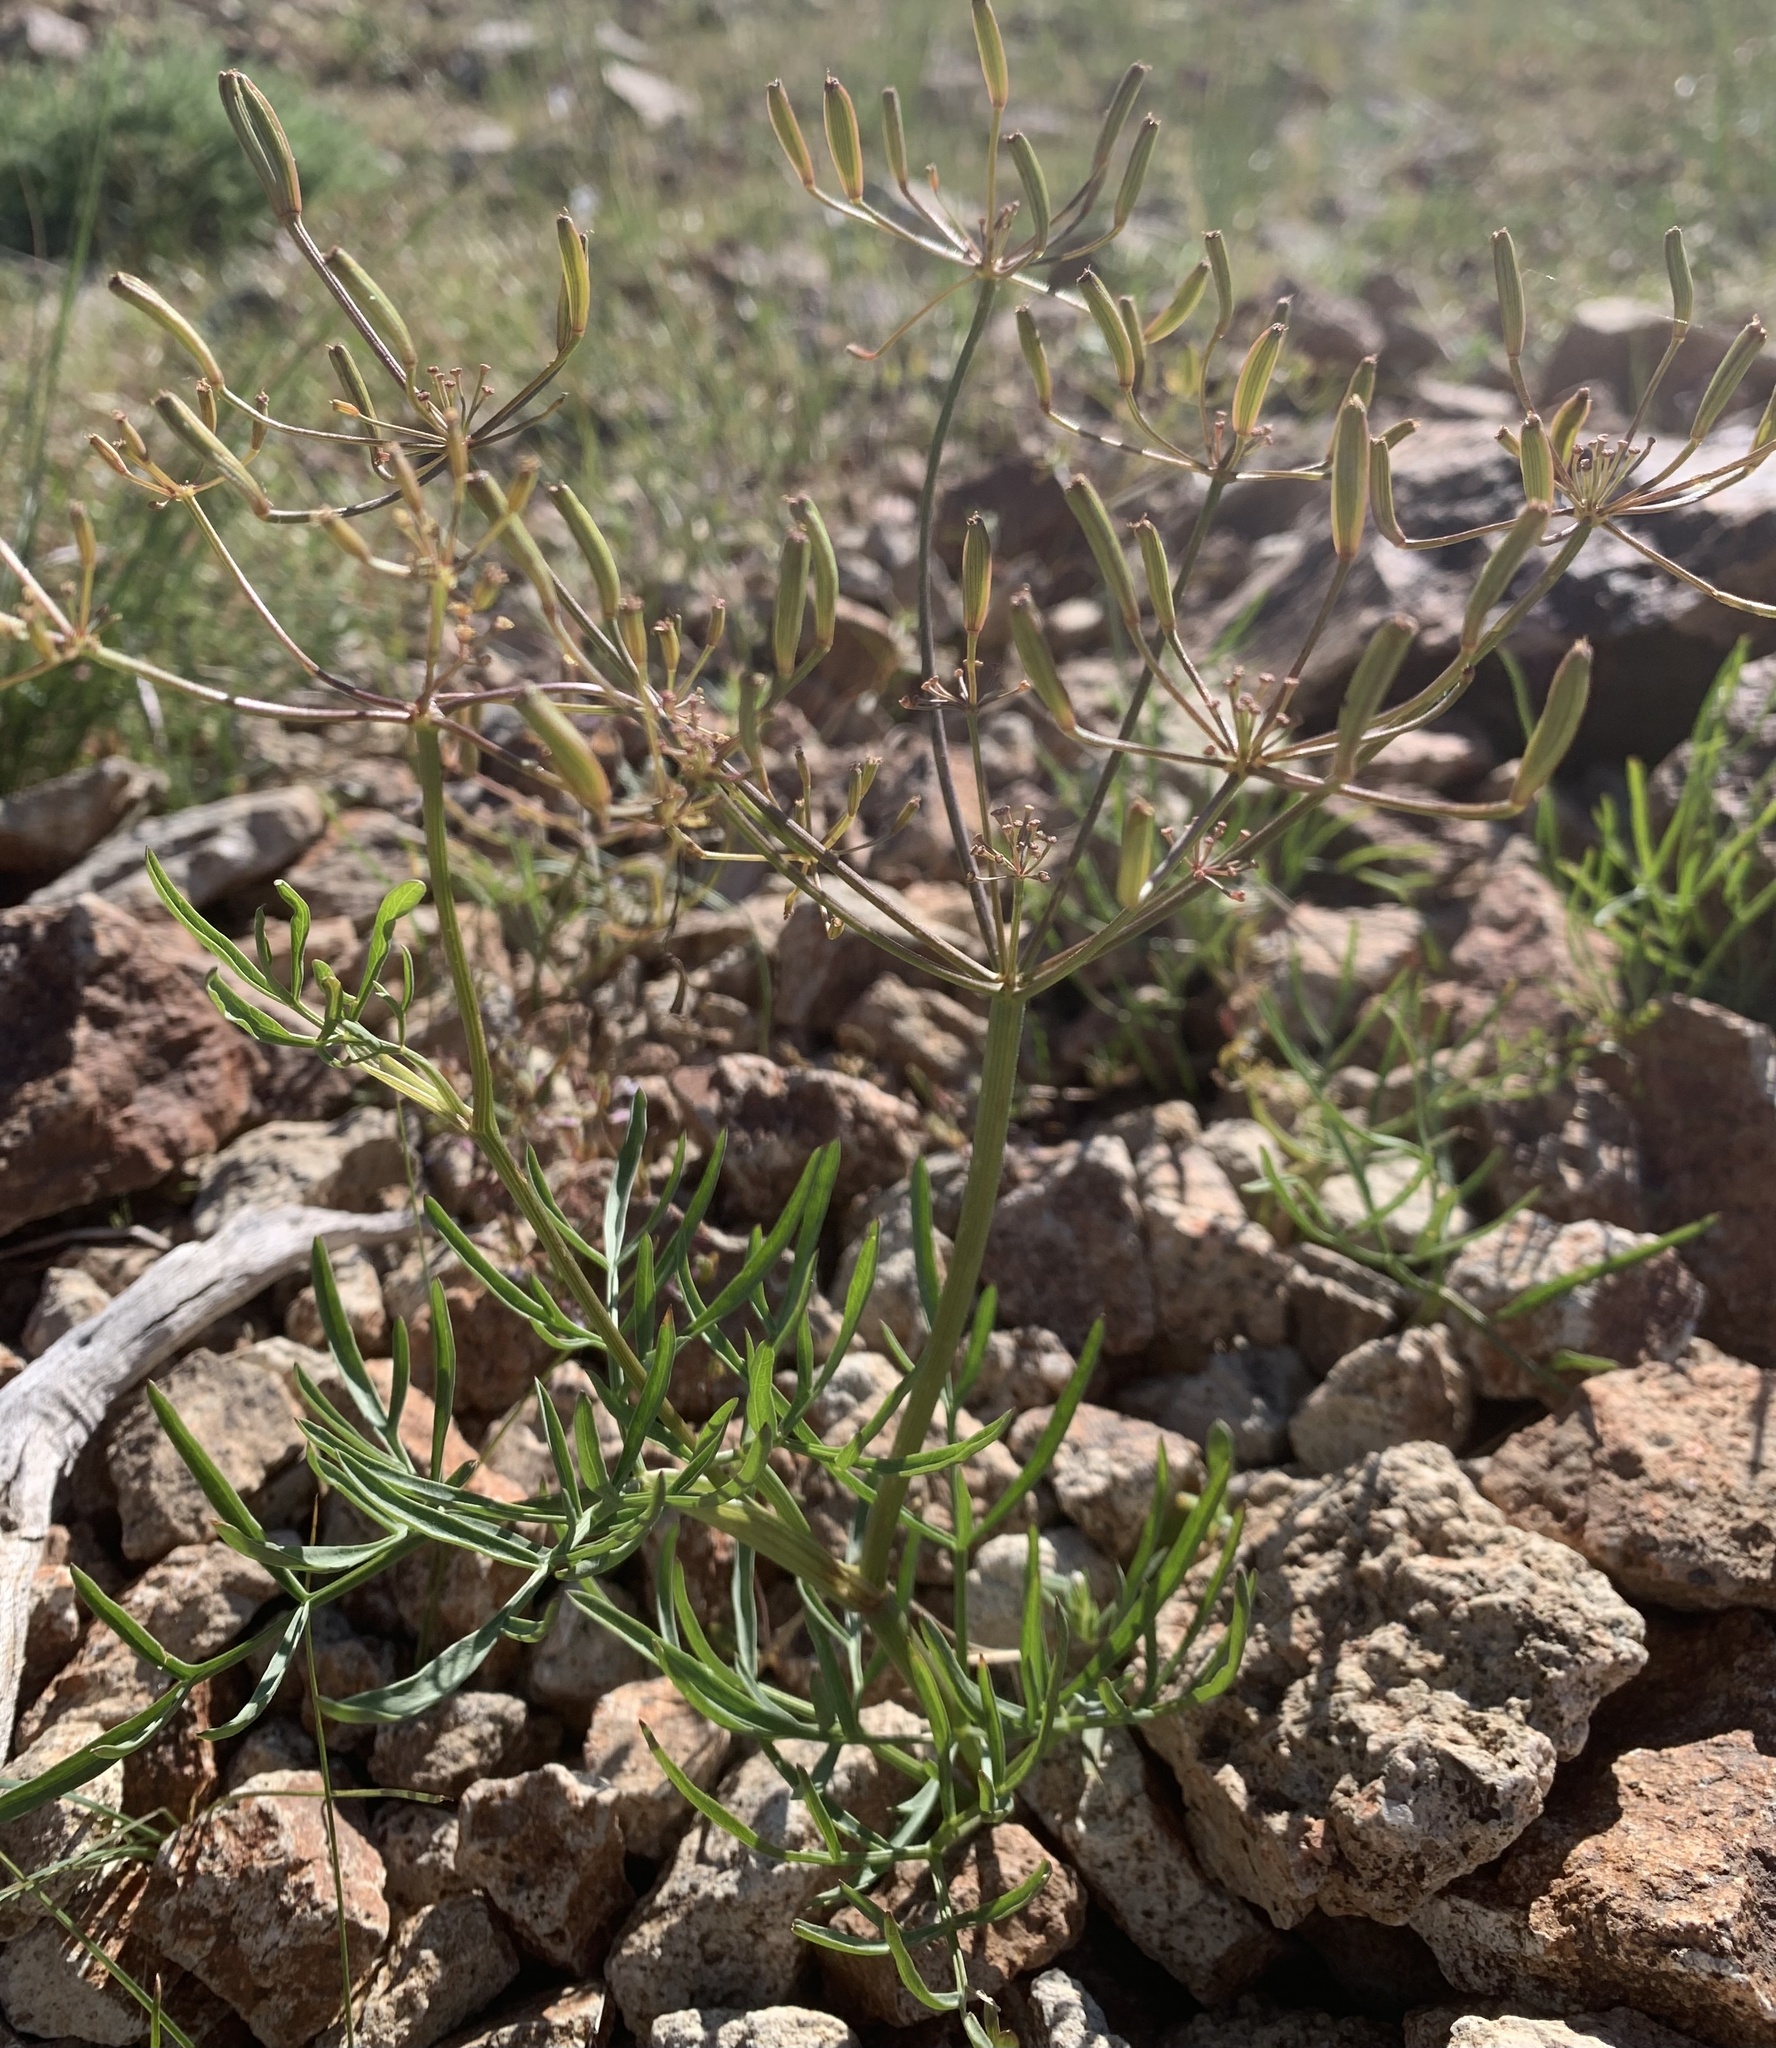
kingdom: Plantae
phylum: Tracheophyta
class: Magnoliopsida
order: Apiales
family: Apiaceae
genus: Lomatium
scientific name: Lomatium idahoense
